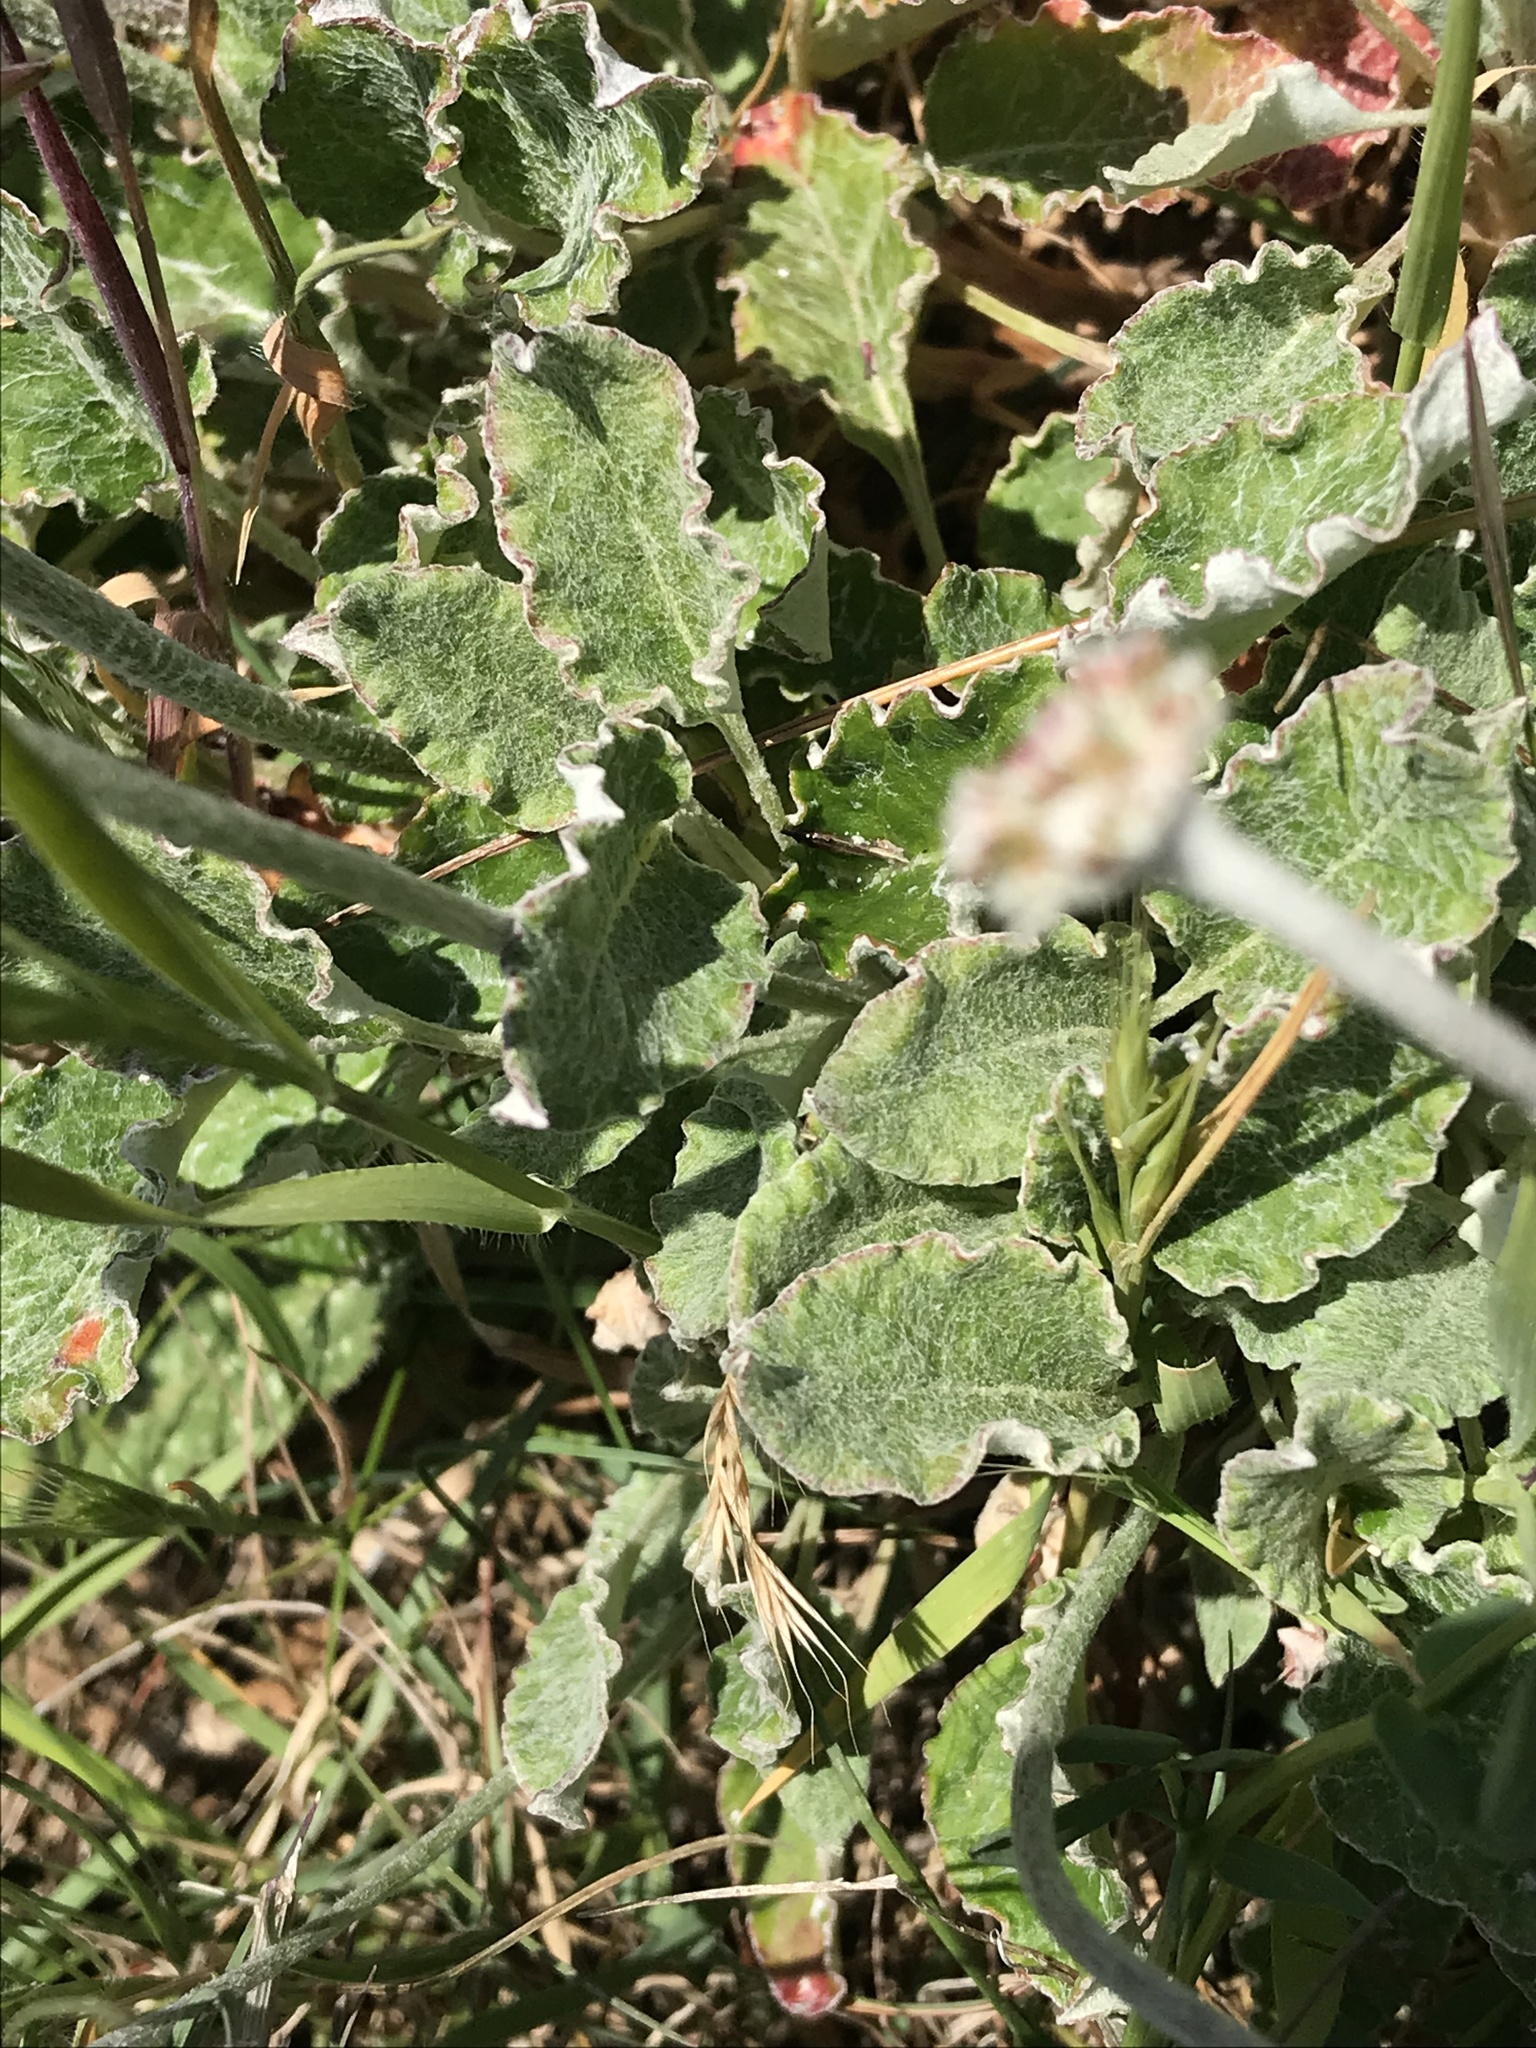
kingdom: Plantae
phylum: Tracheophyta
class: Magnoliopsida
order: Caryophyllales
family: Polygonaceae
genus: Eriogonum
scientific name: Eriogonum latifolium
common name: Seaside wild buckwheat
